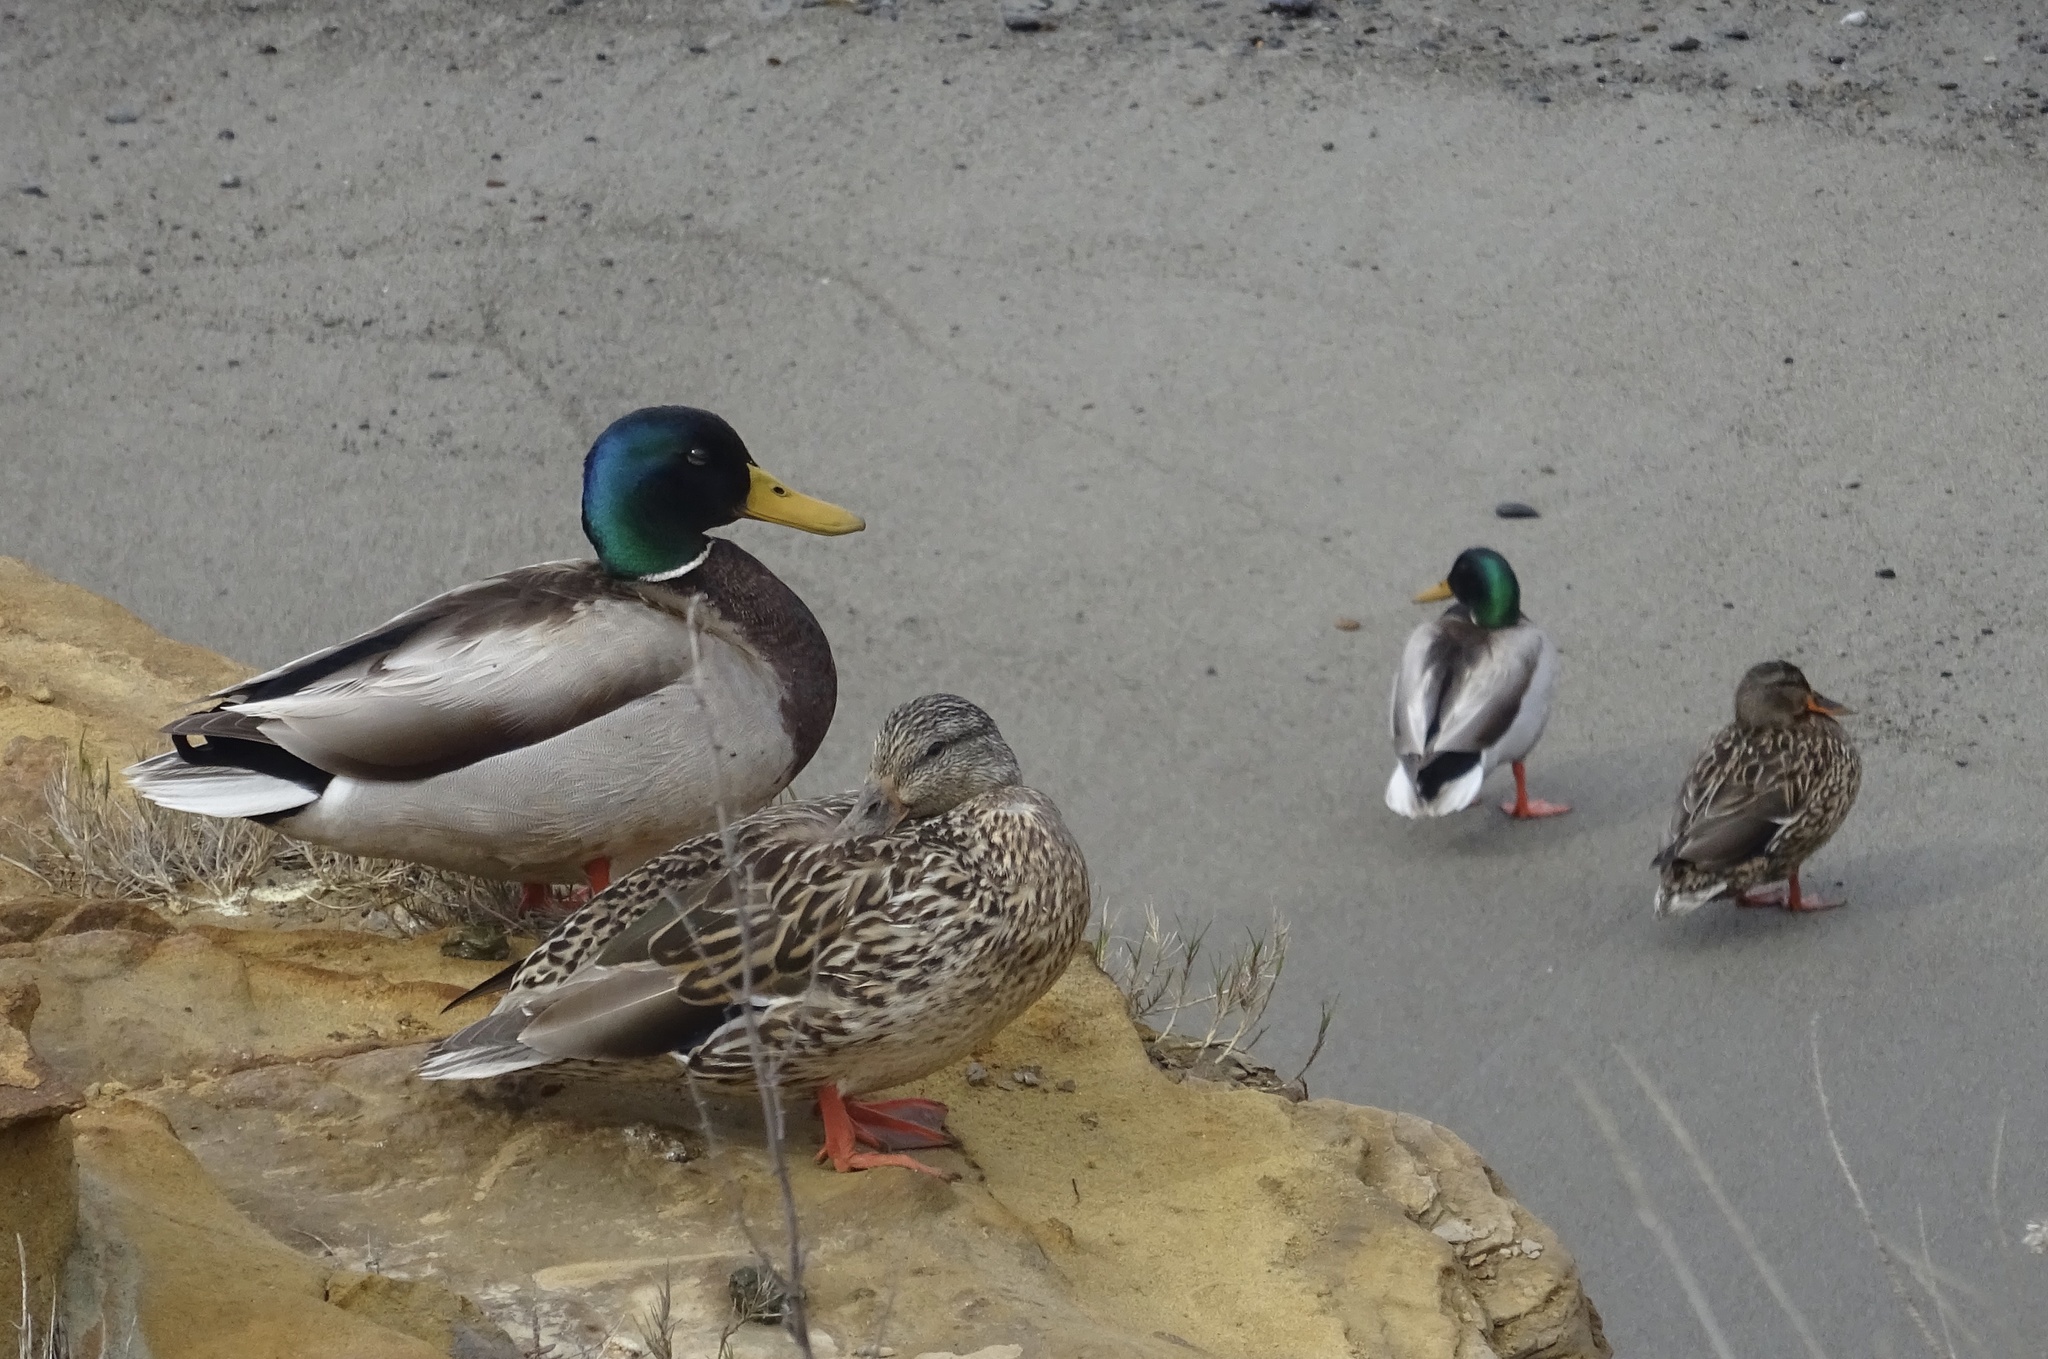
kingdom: Animalia
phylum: Chordata
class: Aves
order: Anseriformes
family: Anatidae
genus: Anas
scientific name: Anas platyrhynchos
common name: Mallard
